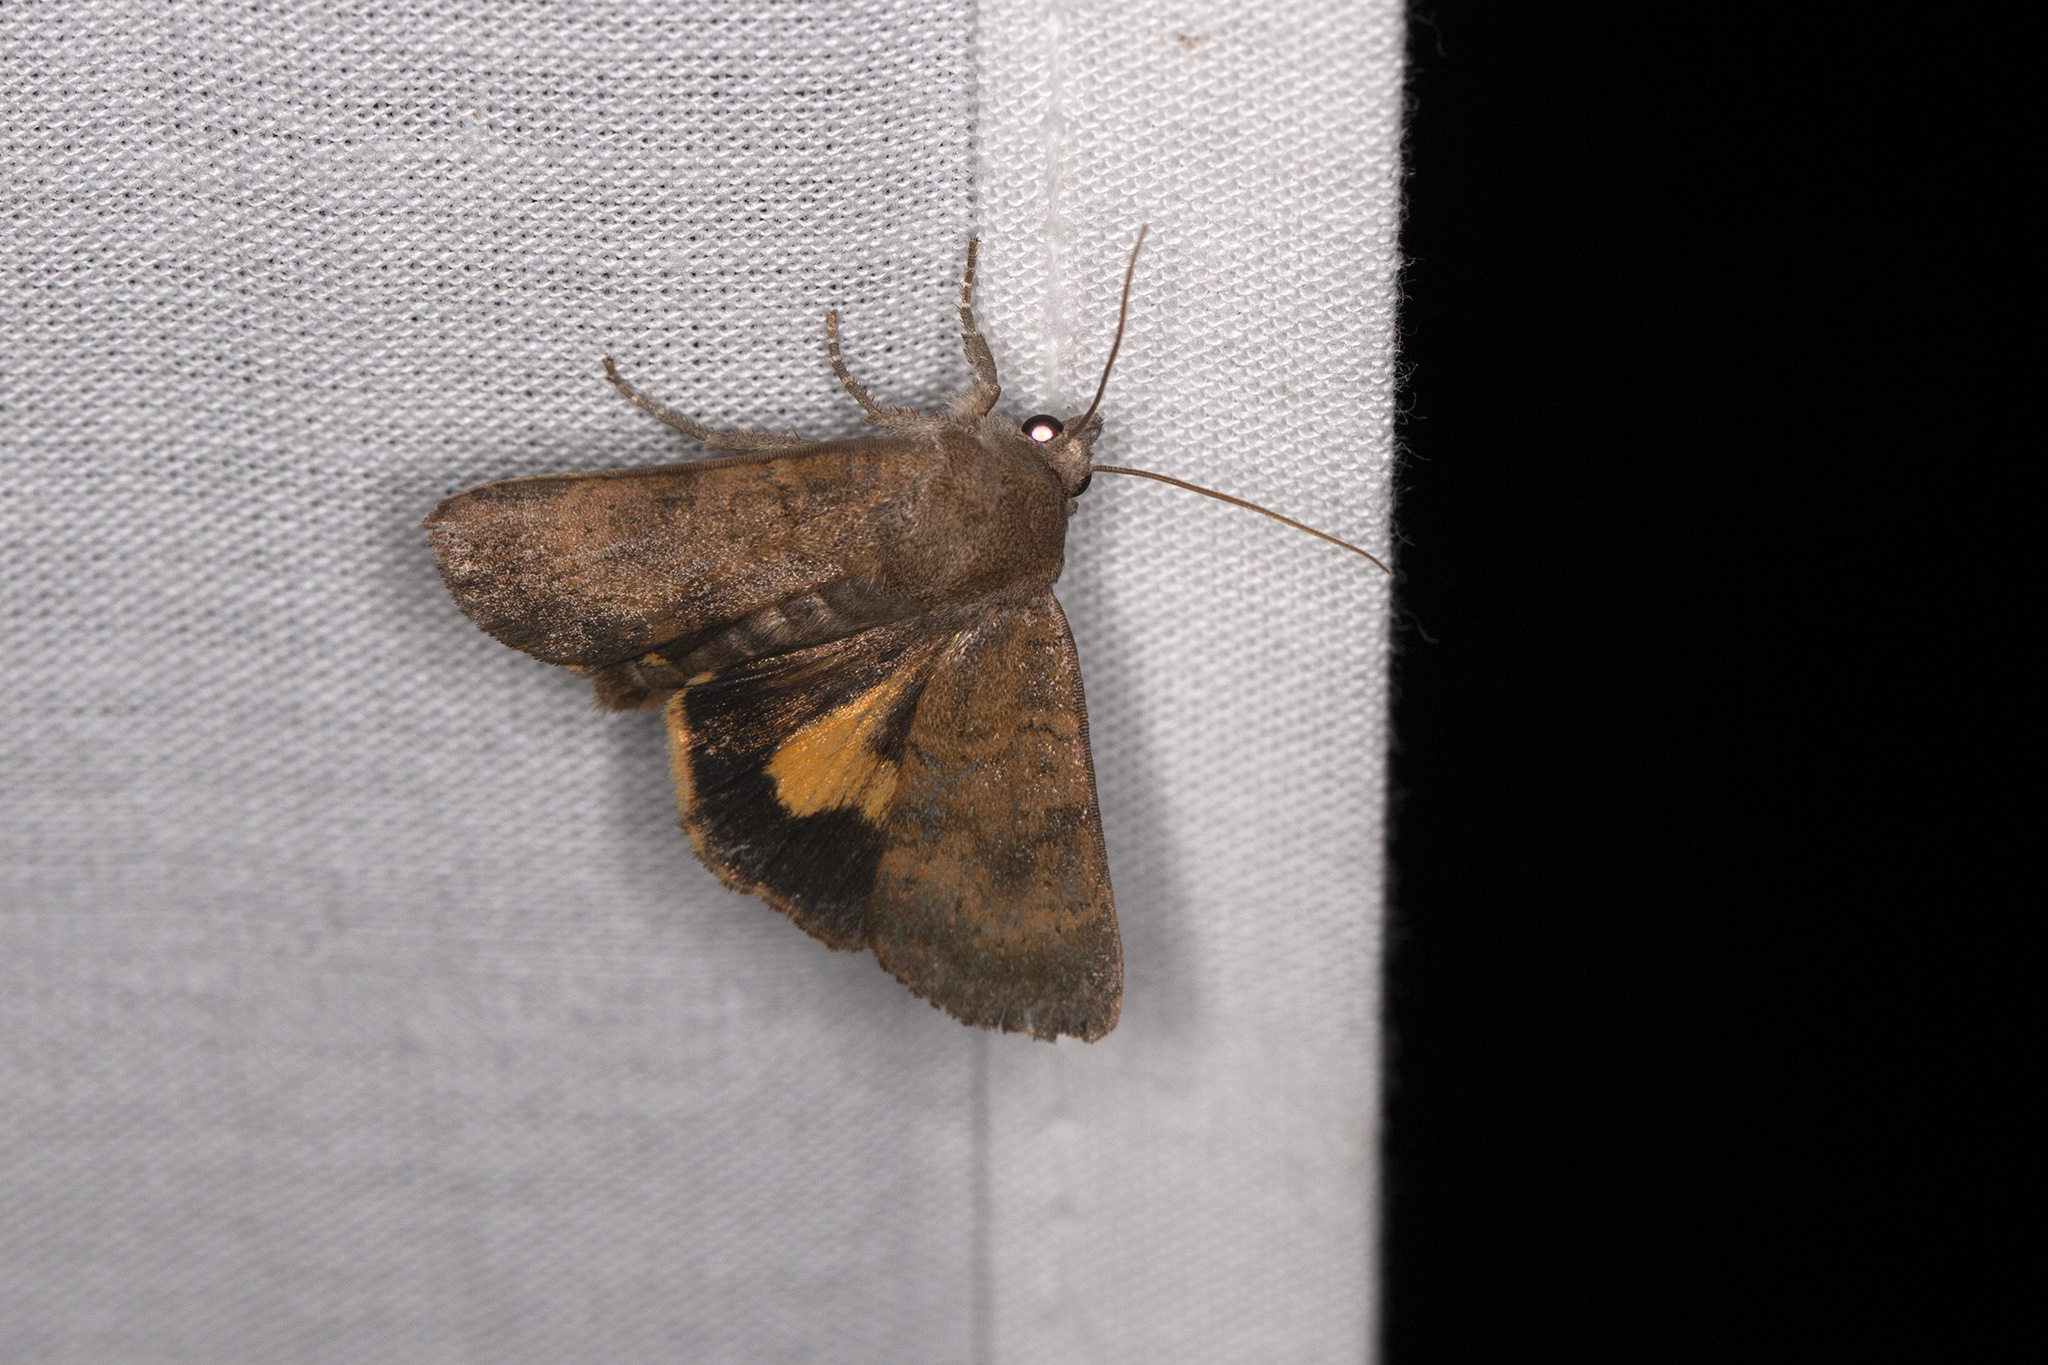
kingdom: Animalia
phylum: Arthropoda
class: Insecta
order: Lepidoptera
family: Noctuidae
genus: Noctua
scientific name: Noctua interjecta
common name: Least yellow underwing
